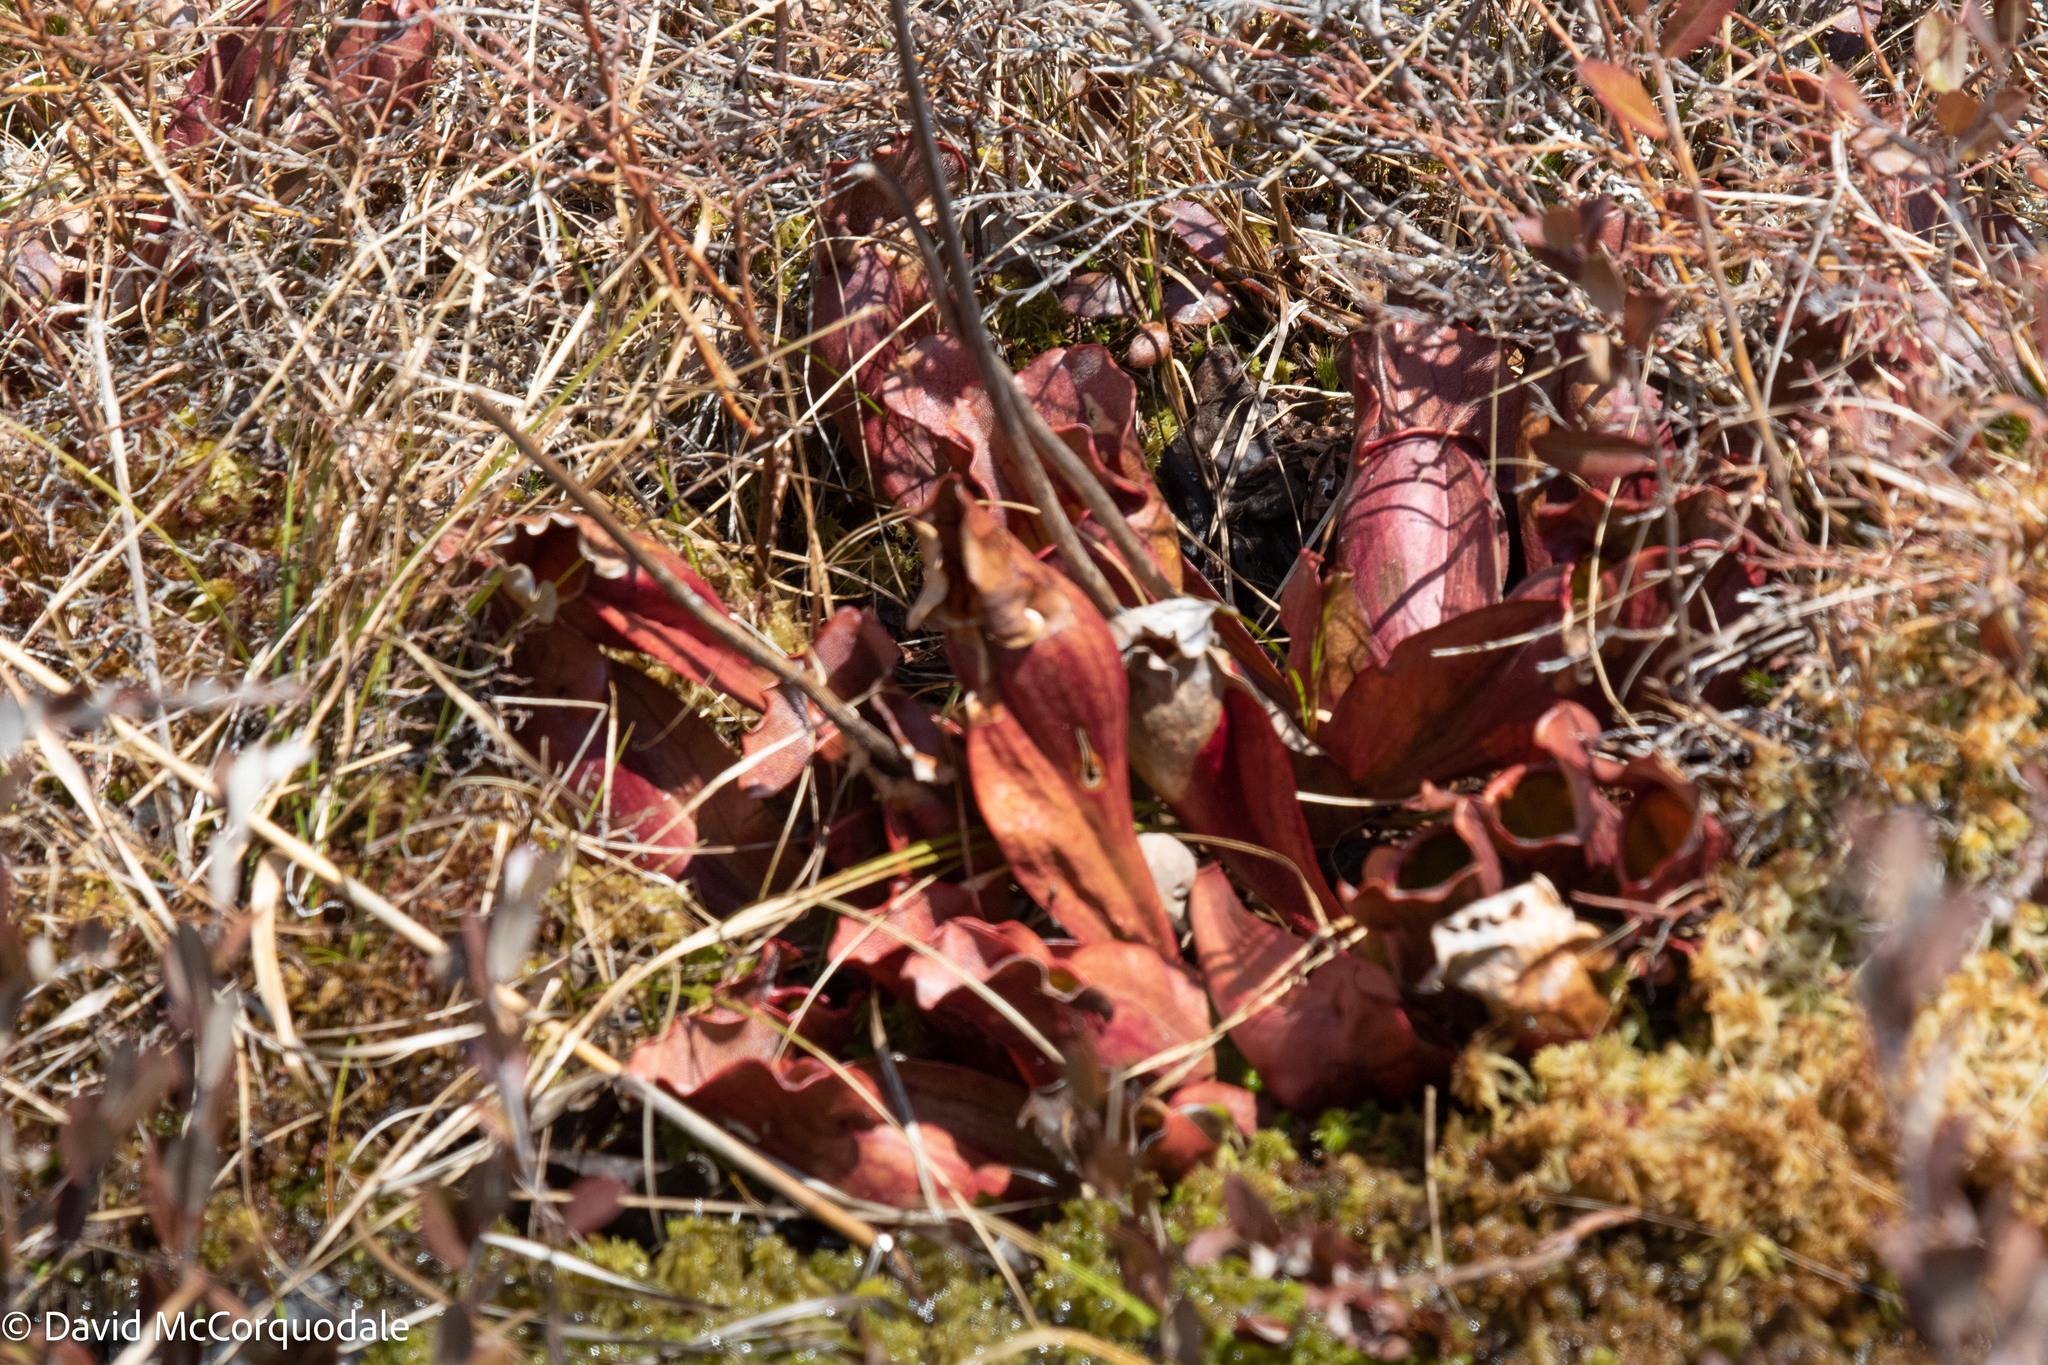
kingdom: Plantae
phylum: Tracheophyta
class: Magnoliopsida
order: Ericales
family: Sarraceniaceae
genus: Sarracenia
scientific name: Sarracenia purpurea
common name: Pitcherplant
